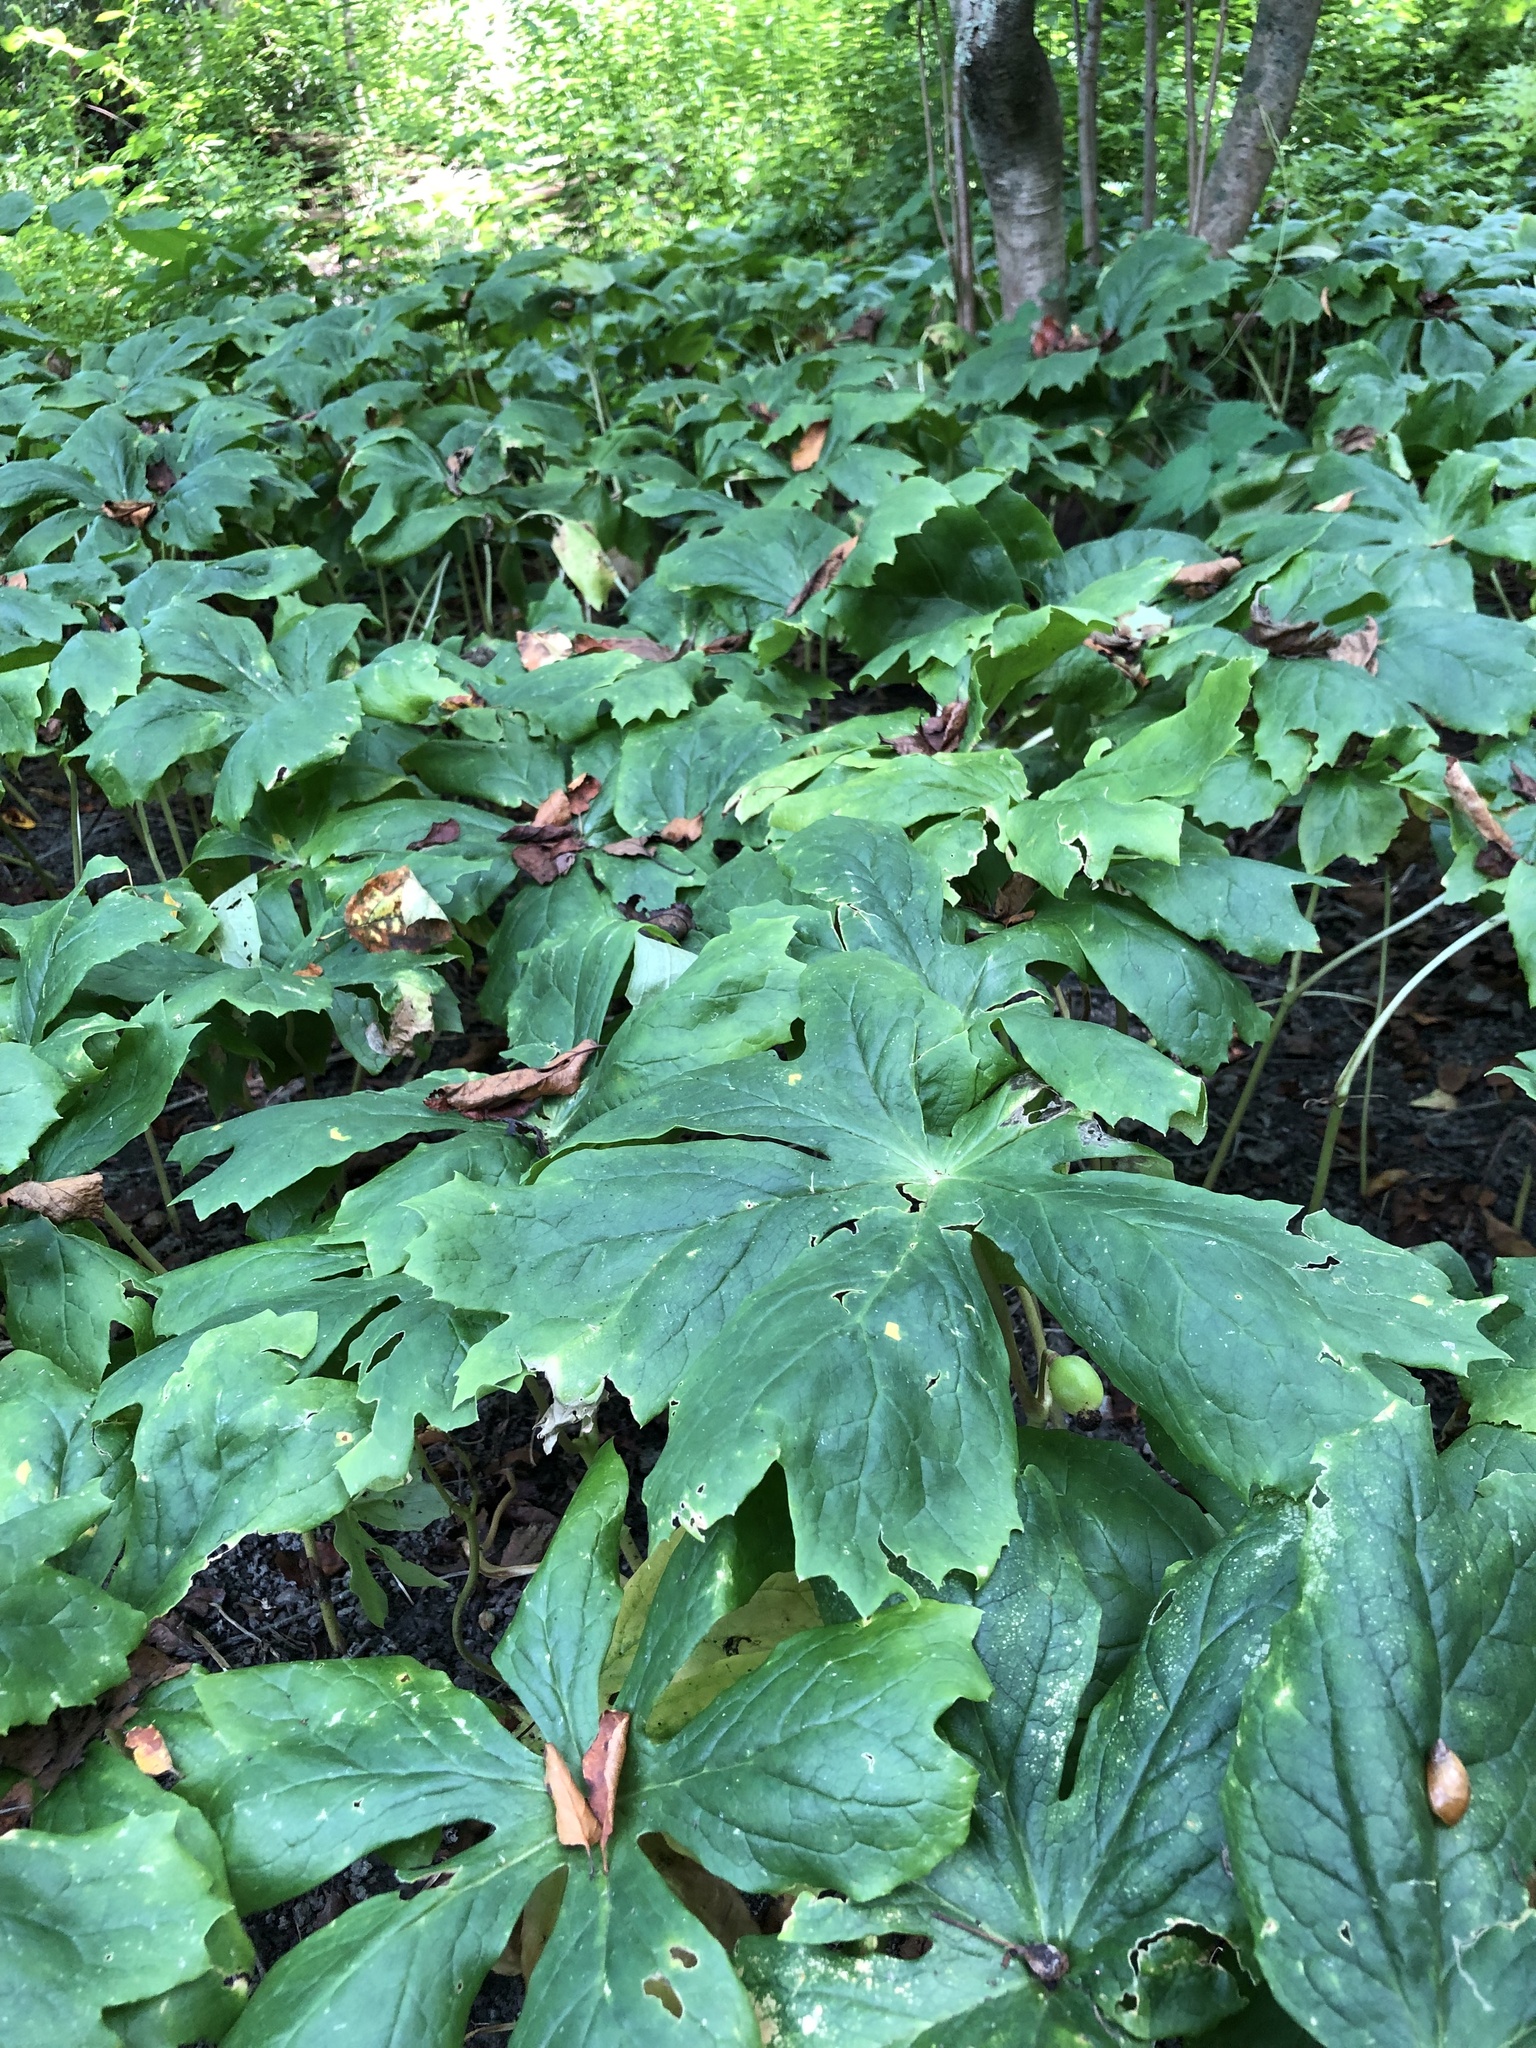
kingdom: Plantae
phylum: Tracheophyta
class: Magnoliopsida
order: Ranunculales
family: Berberidaceae
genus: Podophyllum
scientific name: Podophyllum peltatum
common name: Wild mandrake
